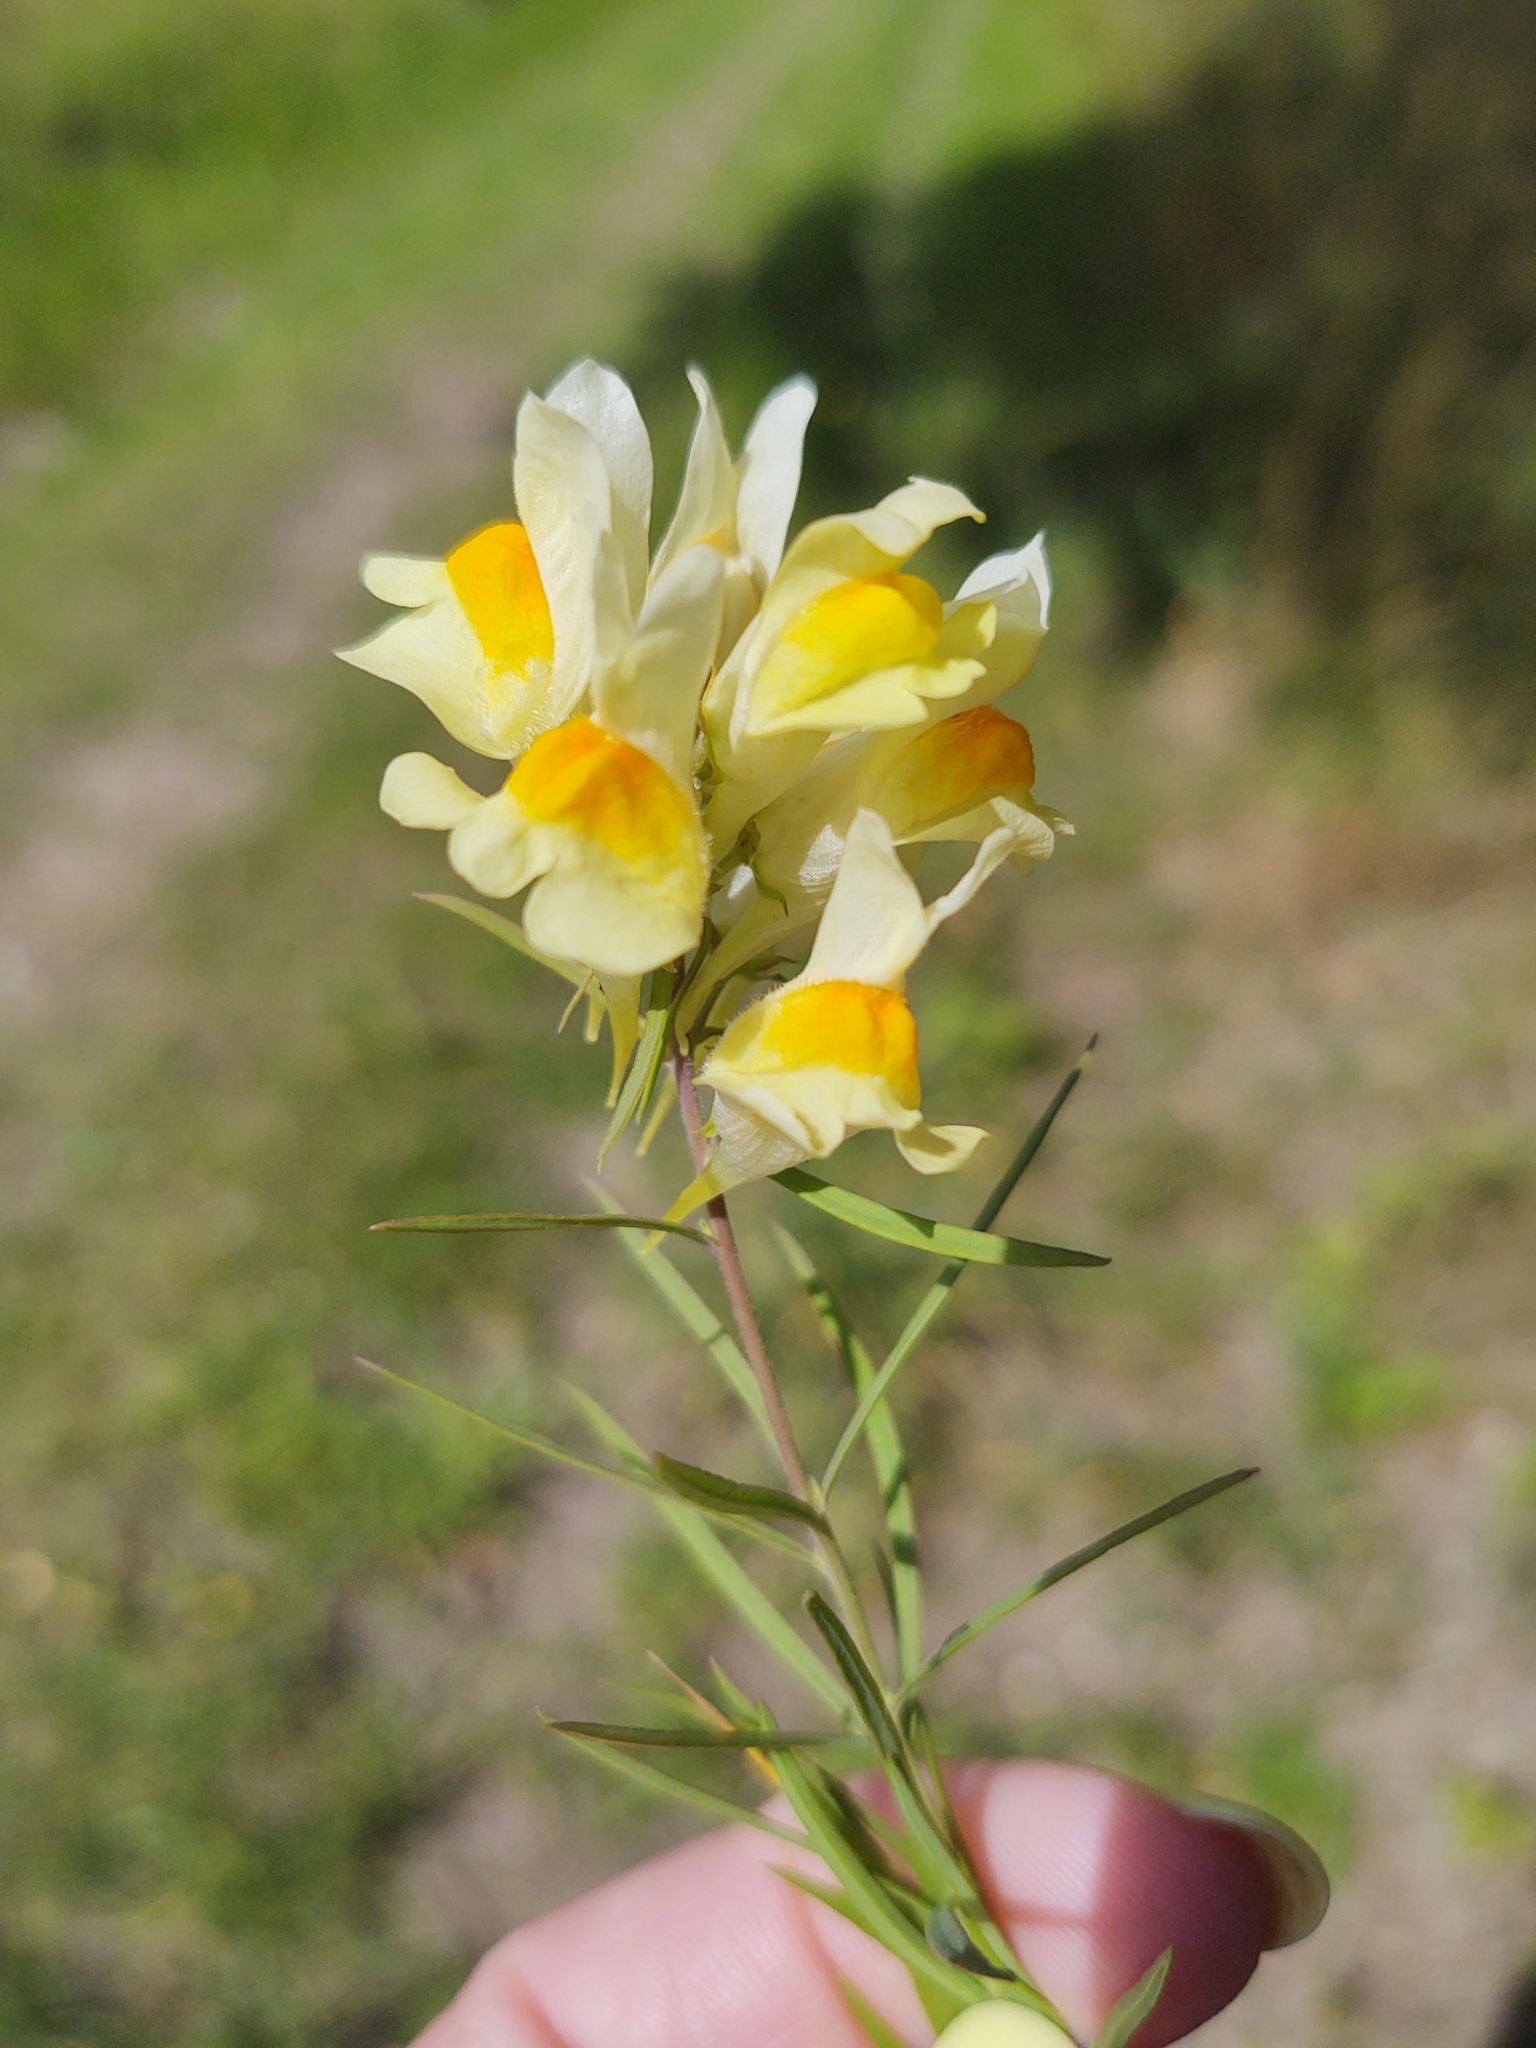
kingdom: Plantae
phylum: Tracheophyta
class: Magnoliopsida
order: Lamiales
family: Plantaginaceae
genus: Linaria
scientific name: Linaria vulgaris
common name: Butter and eggs
